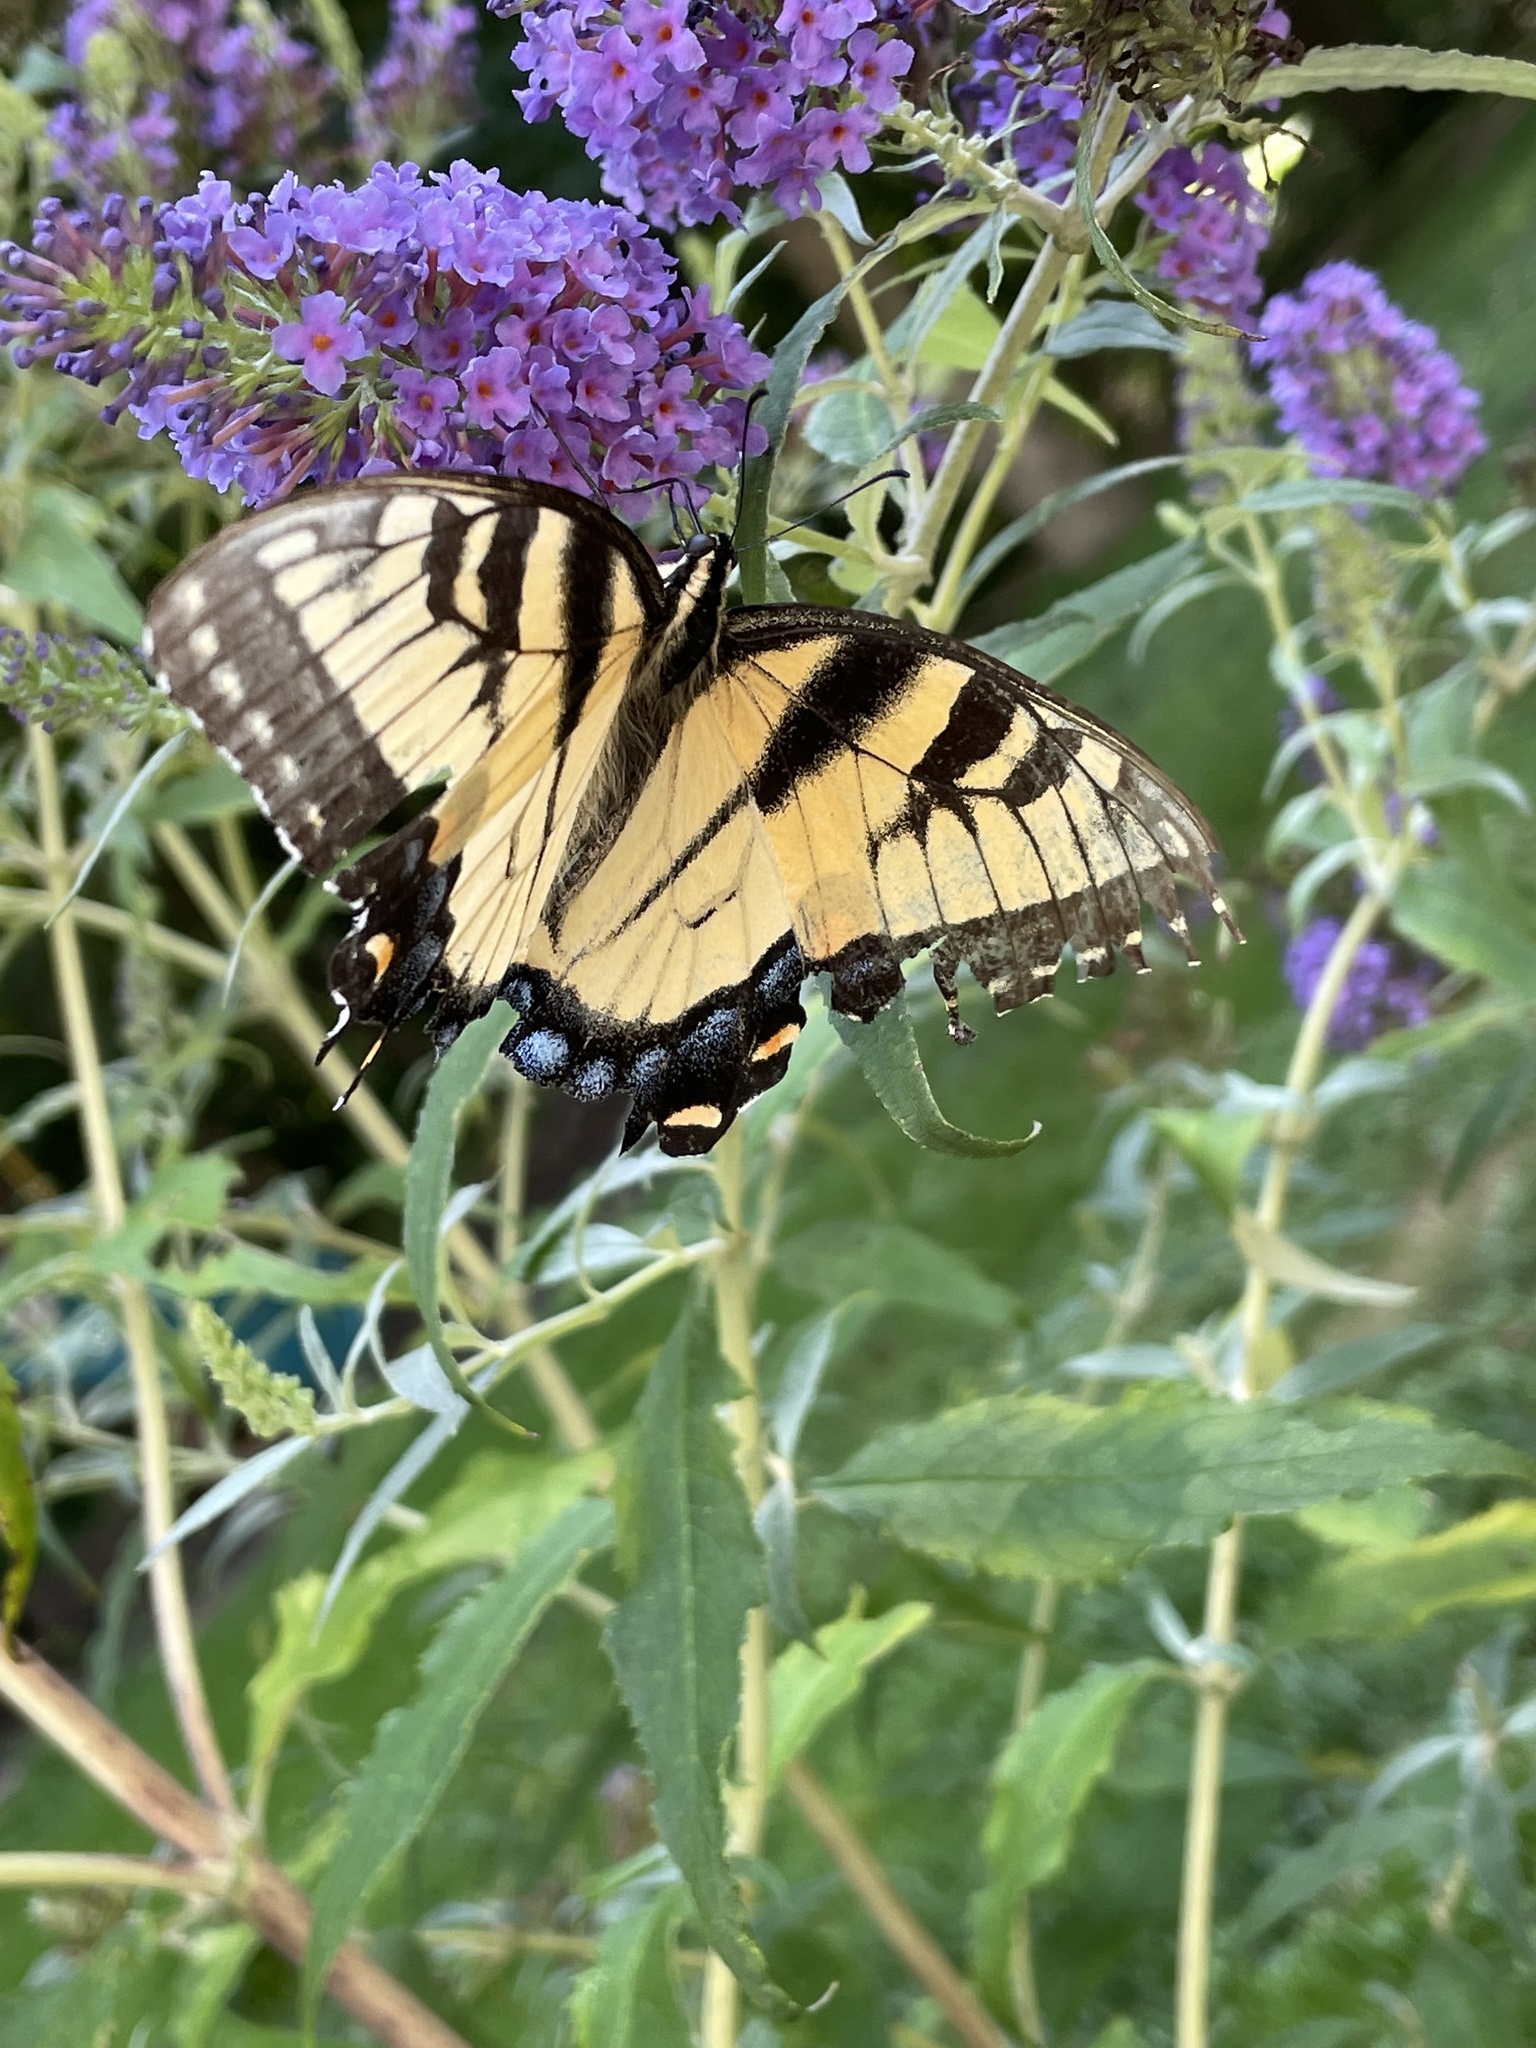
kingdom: Animalia
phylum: Arthropoda
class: Insecta
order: Lepidoptera
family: Papilionidae
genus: Papilio
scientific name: Papilio glaucus
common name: Tiger swallowtail
